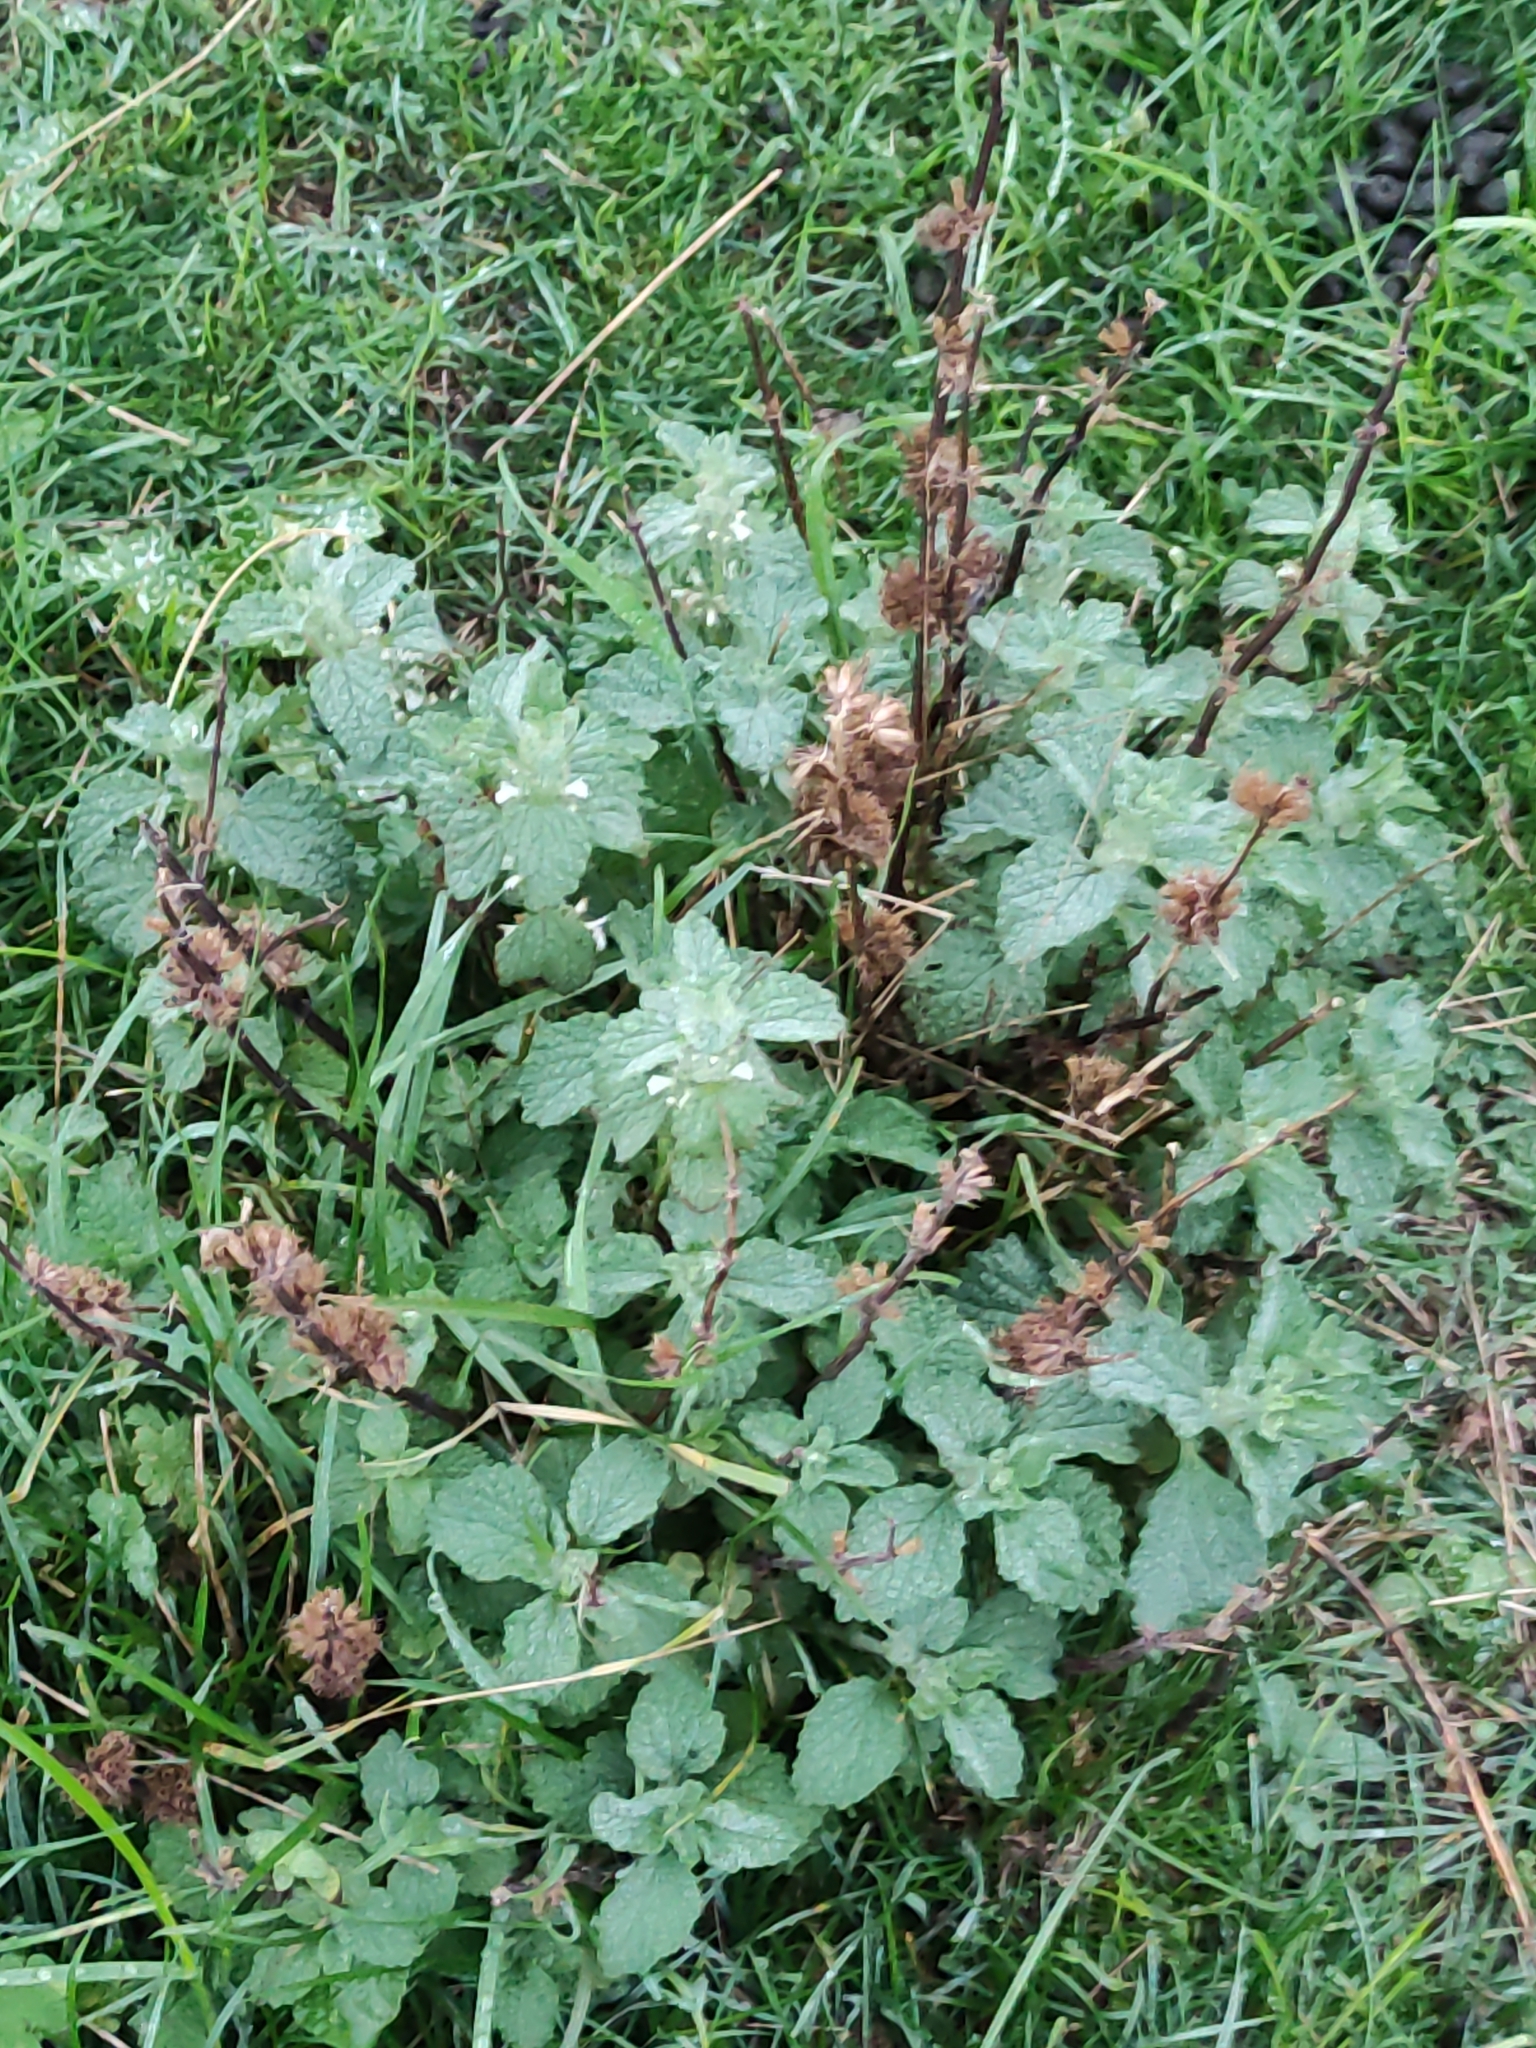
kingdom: Plantae
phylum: Tracheophyta
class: Magnoliopsida
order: Lamiales
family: Lamiaceae
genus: Marrubium
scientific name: Marrubium vulgare
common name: Horehound
